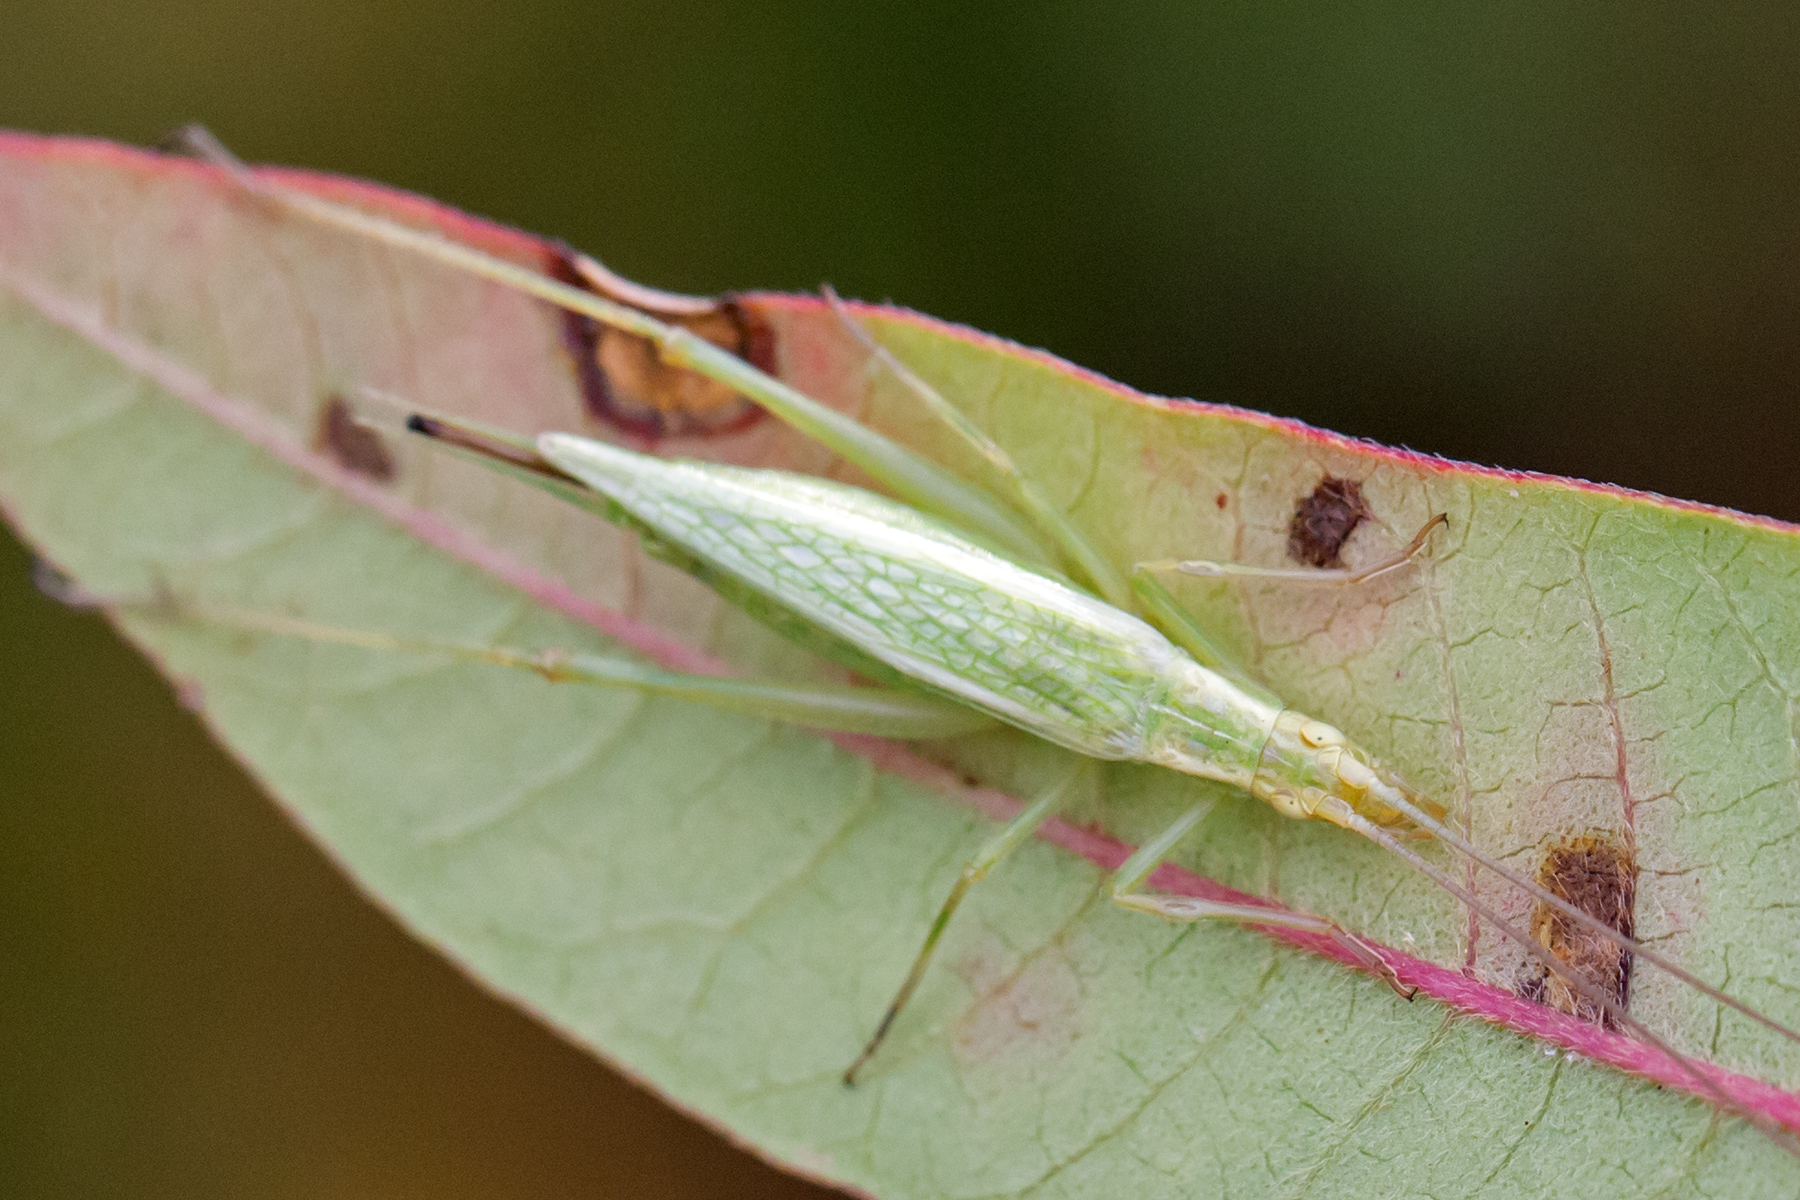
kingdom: Animalia
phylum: Arthropoda
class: Insecta
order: Orthoptera
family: Gryllidae
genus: Oecanthus
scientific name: Oecanthus quadripunctatus
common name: Four-spotted tree cricket
